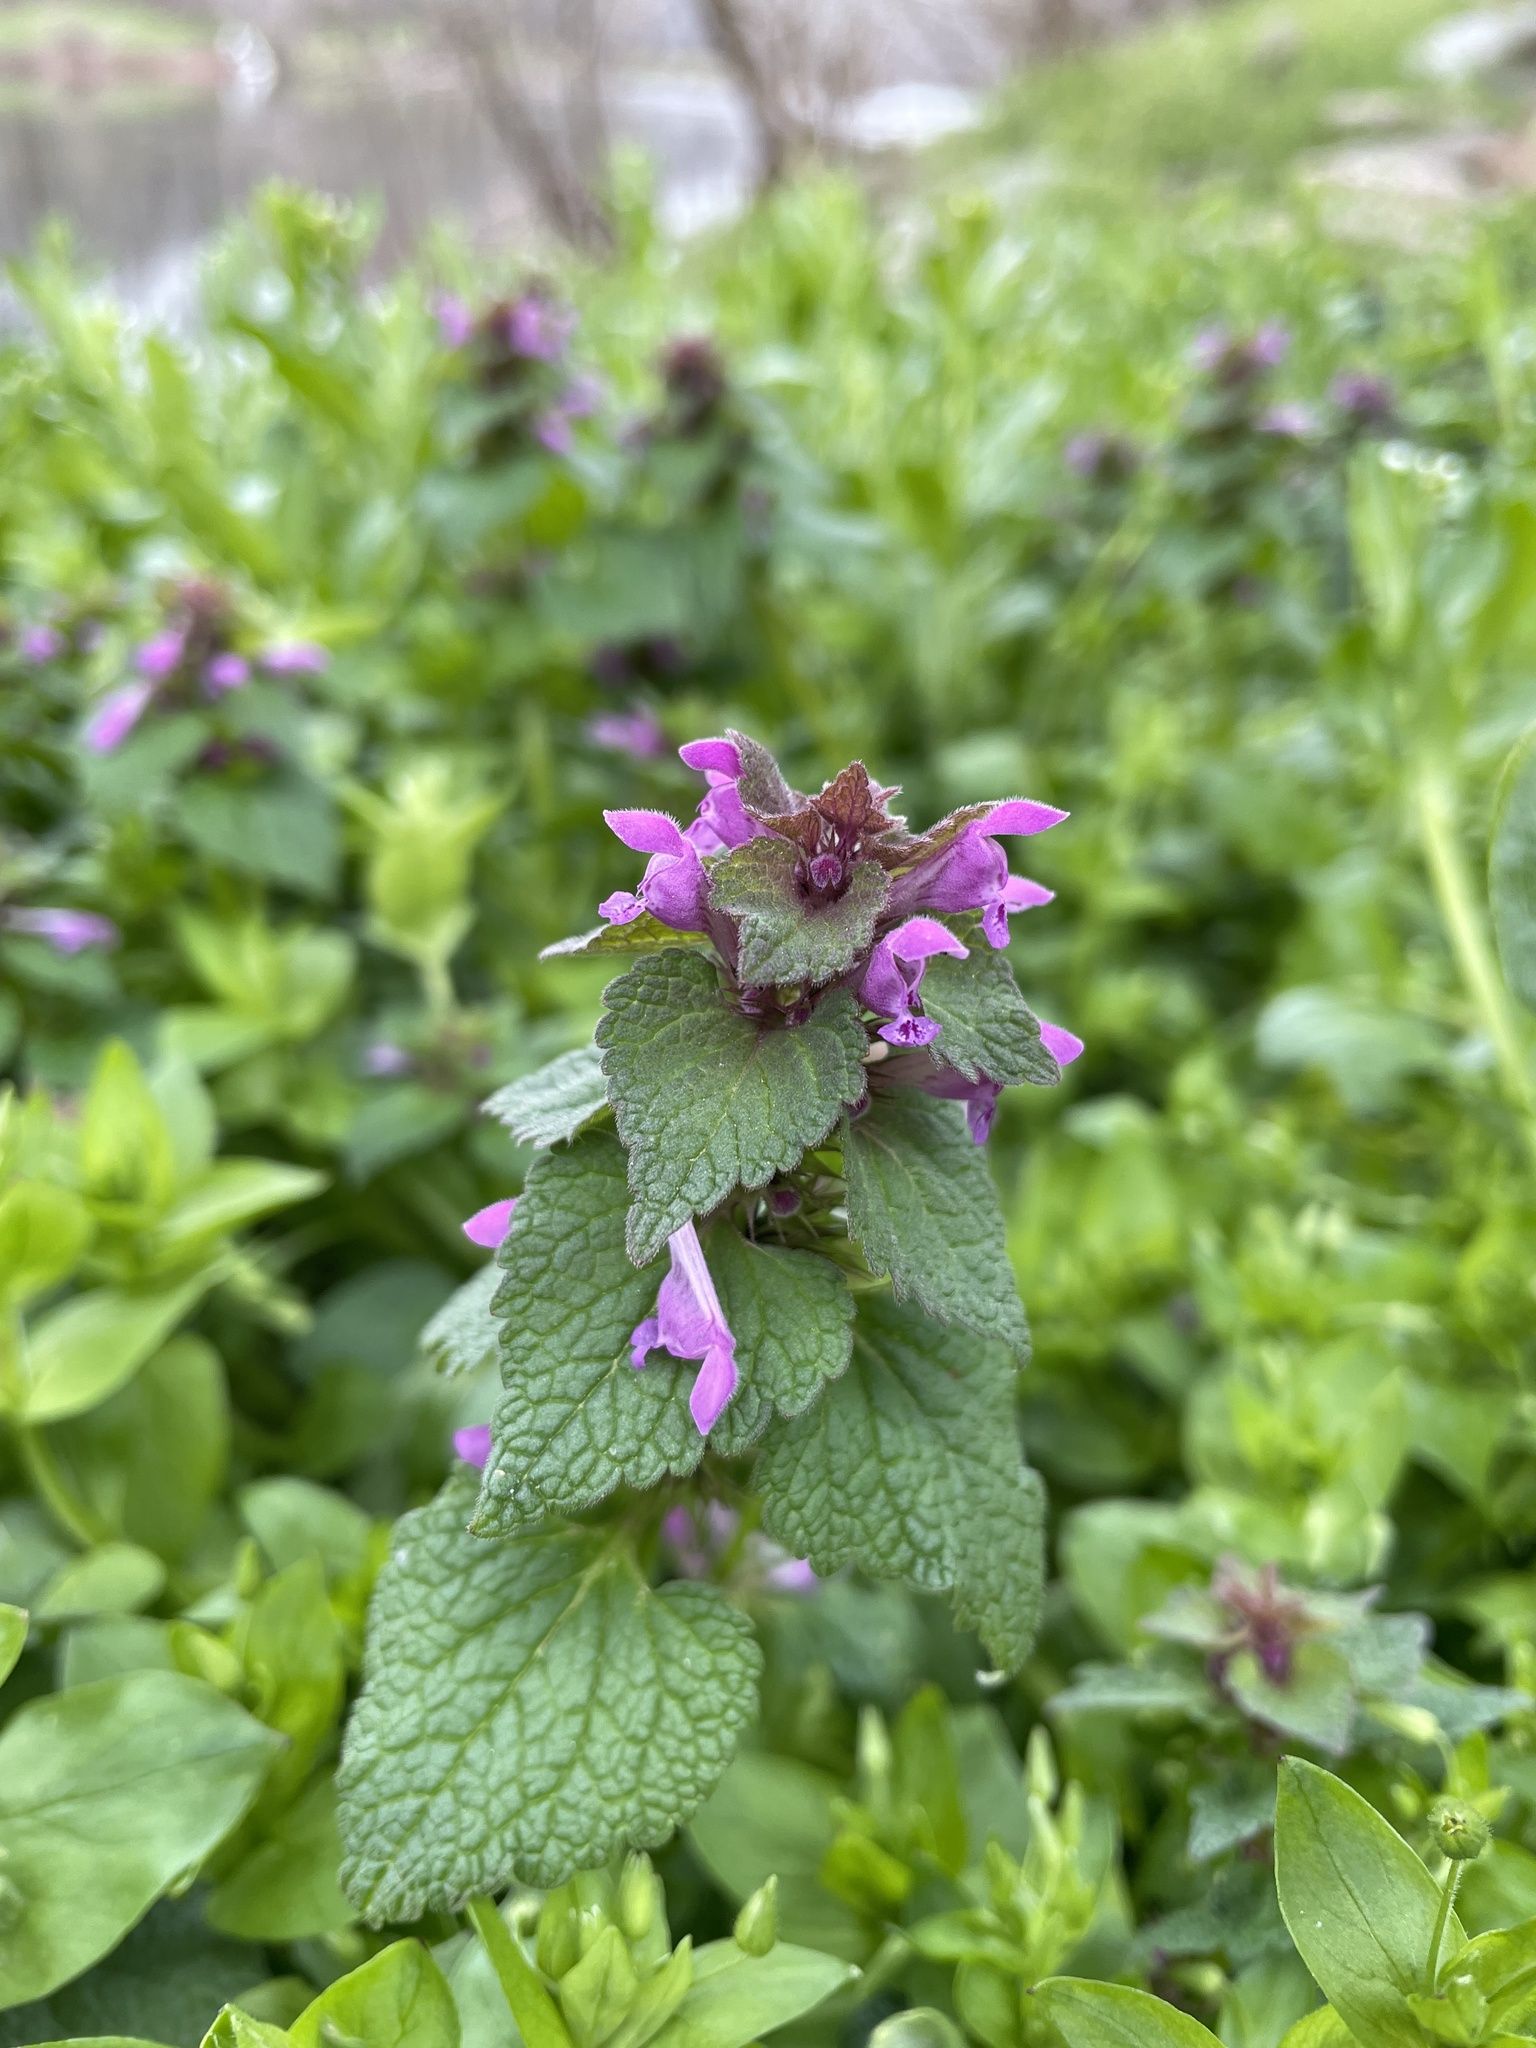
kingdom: Plantae
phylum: Tracheophyta
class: Magnoliopsida
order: Lamiales
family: Lamiaceae
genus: Lamium
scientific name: Lamium purpureum
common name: Red dead-nettle
